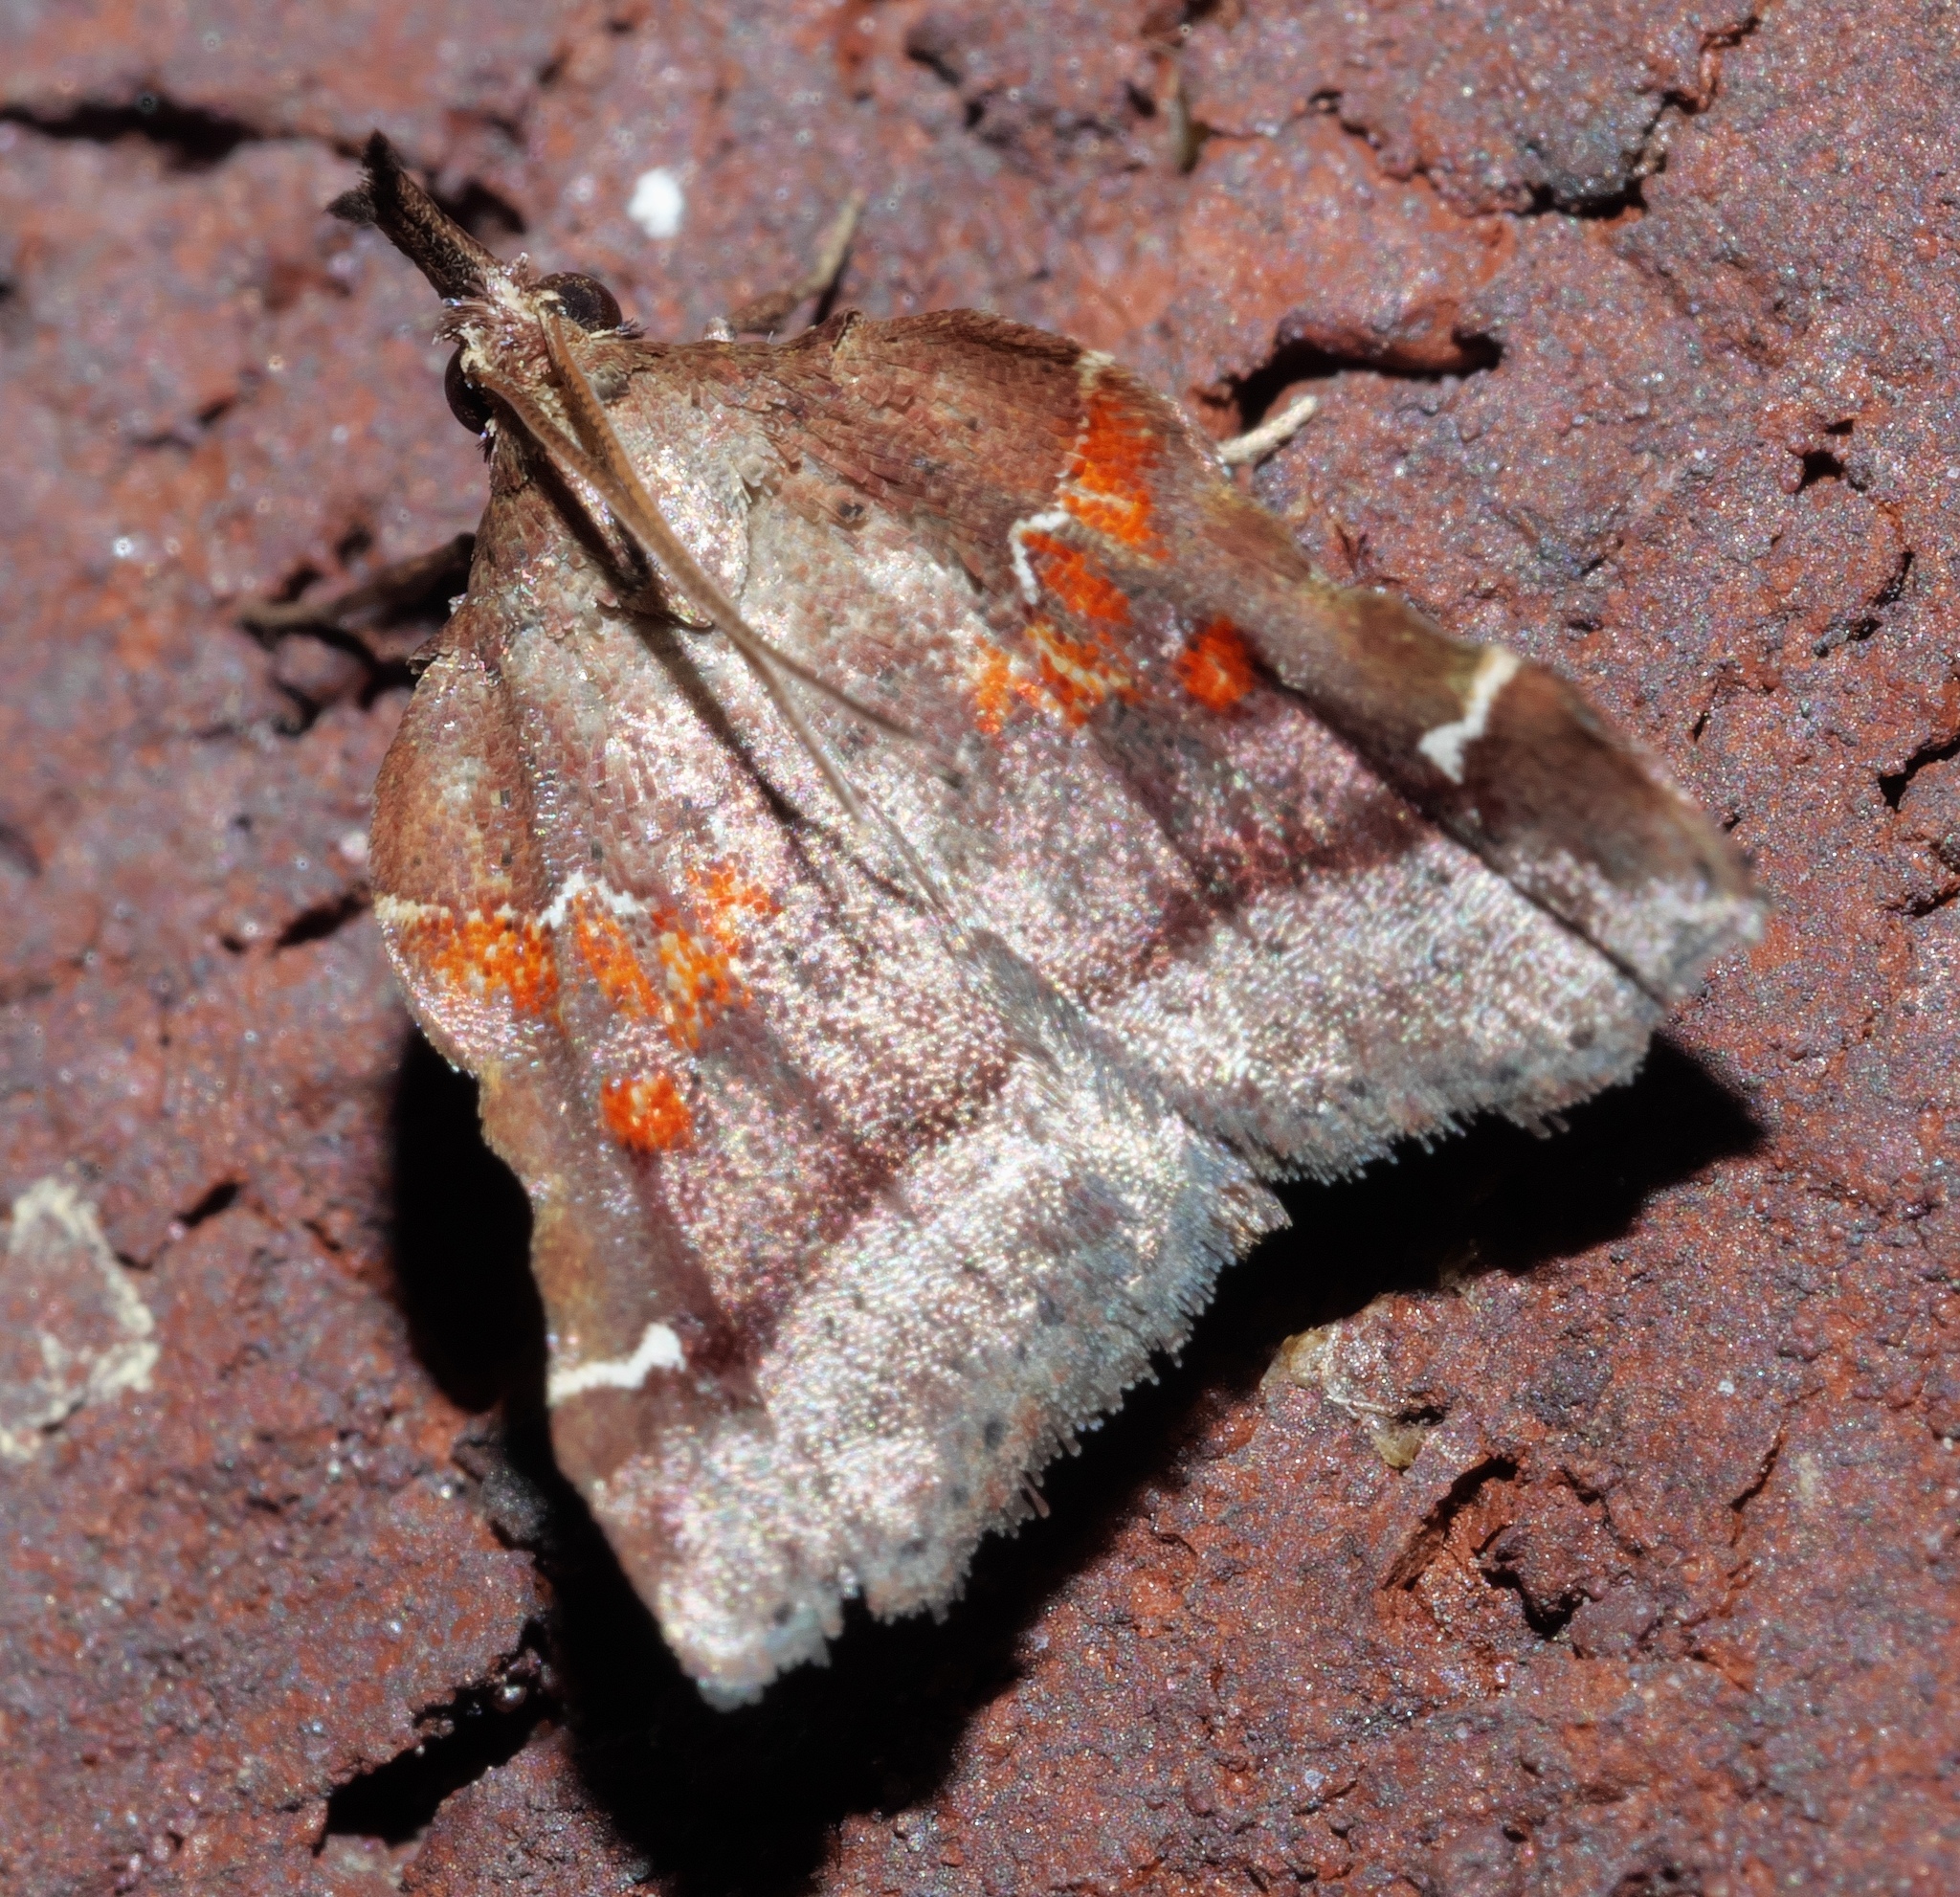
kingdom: Animalia
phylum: Arthropoda
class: Insecta
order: Lepidoptera
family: Pyralidae
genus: Clydonopteron
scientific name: Clydonopteron sacculana
